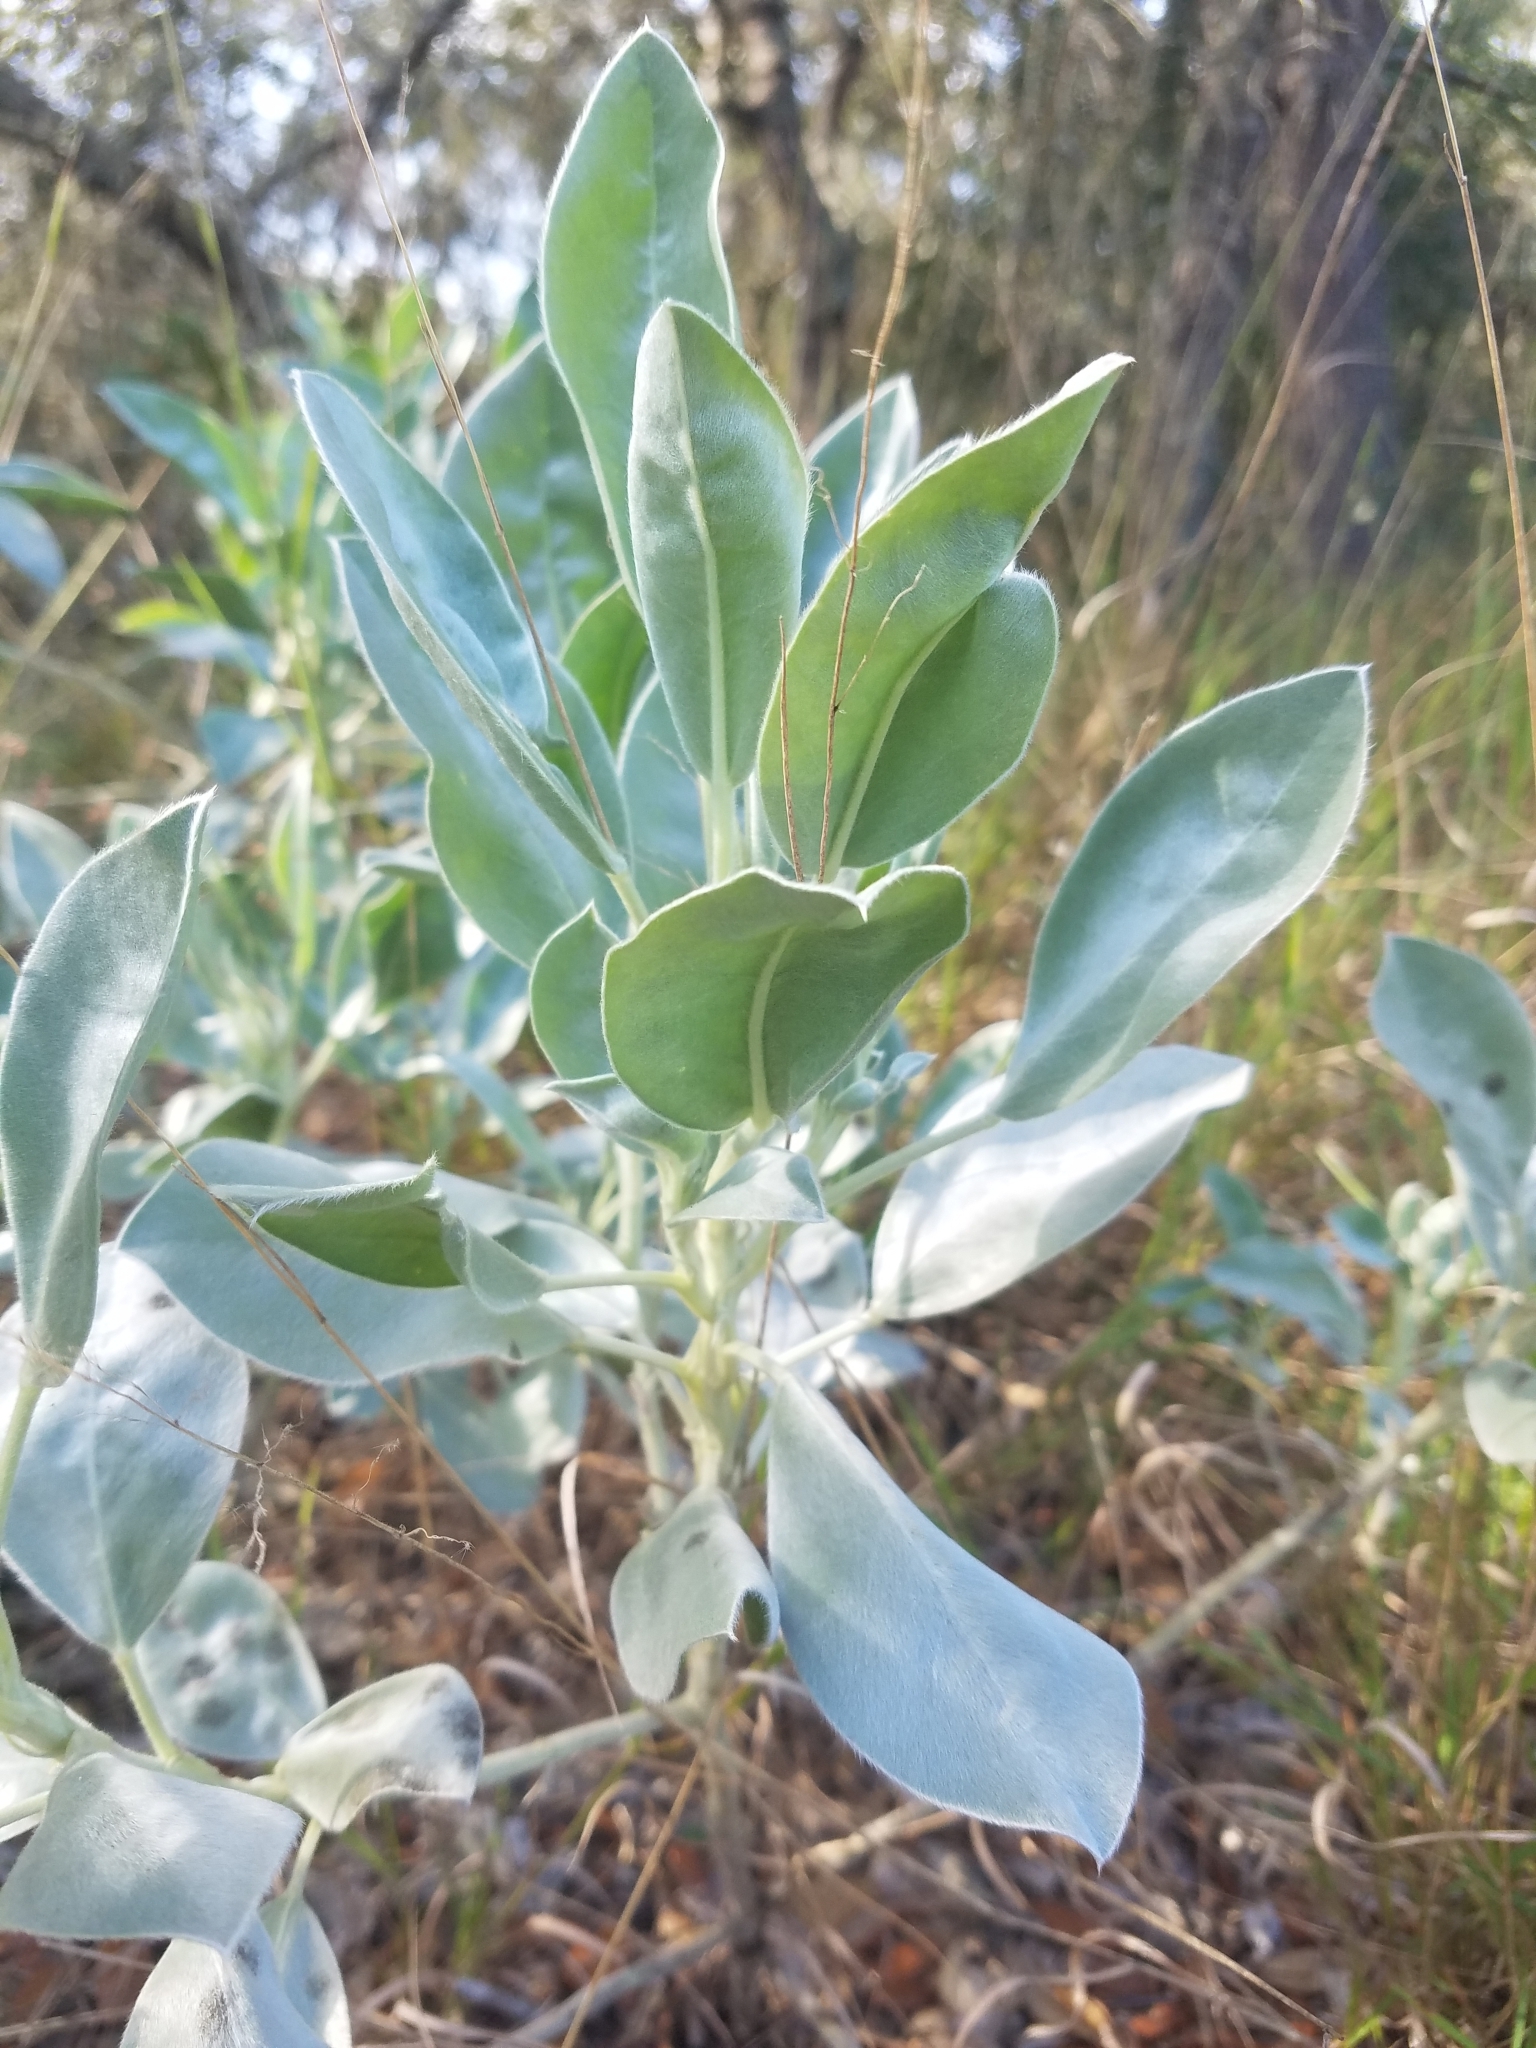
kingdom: Plantae
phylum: Tracheophyta
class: Magnoliopsida
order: Fabales
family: Fabaceae
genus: Lupinus
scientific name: Lupinus cumulicola
